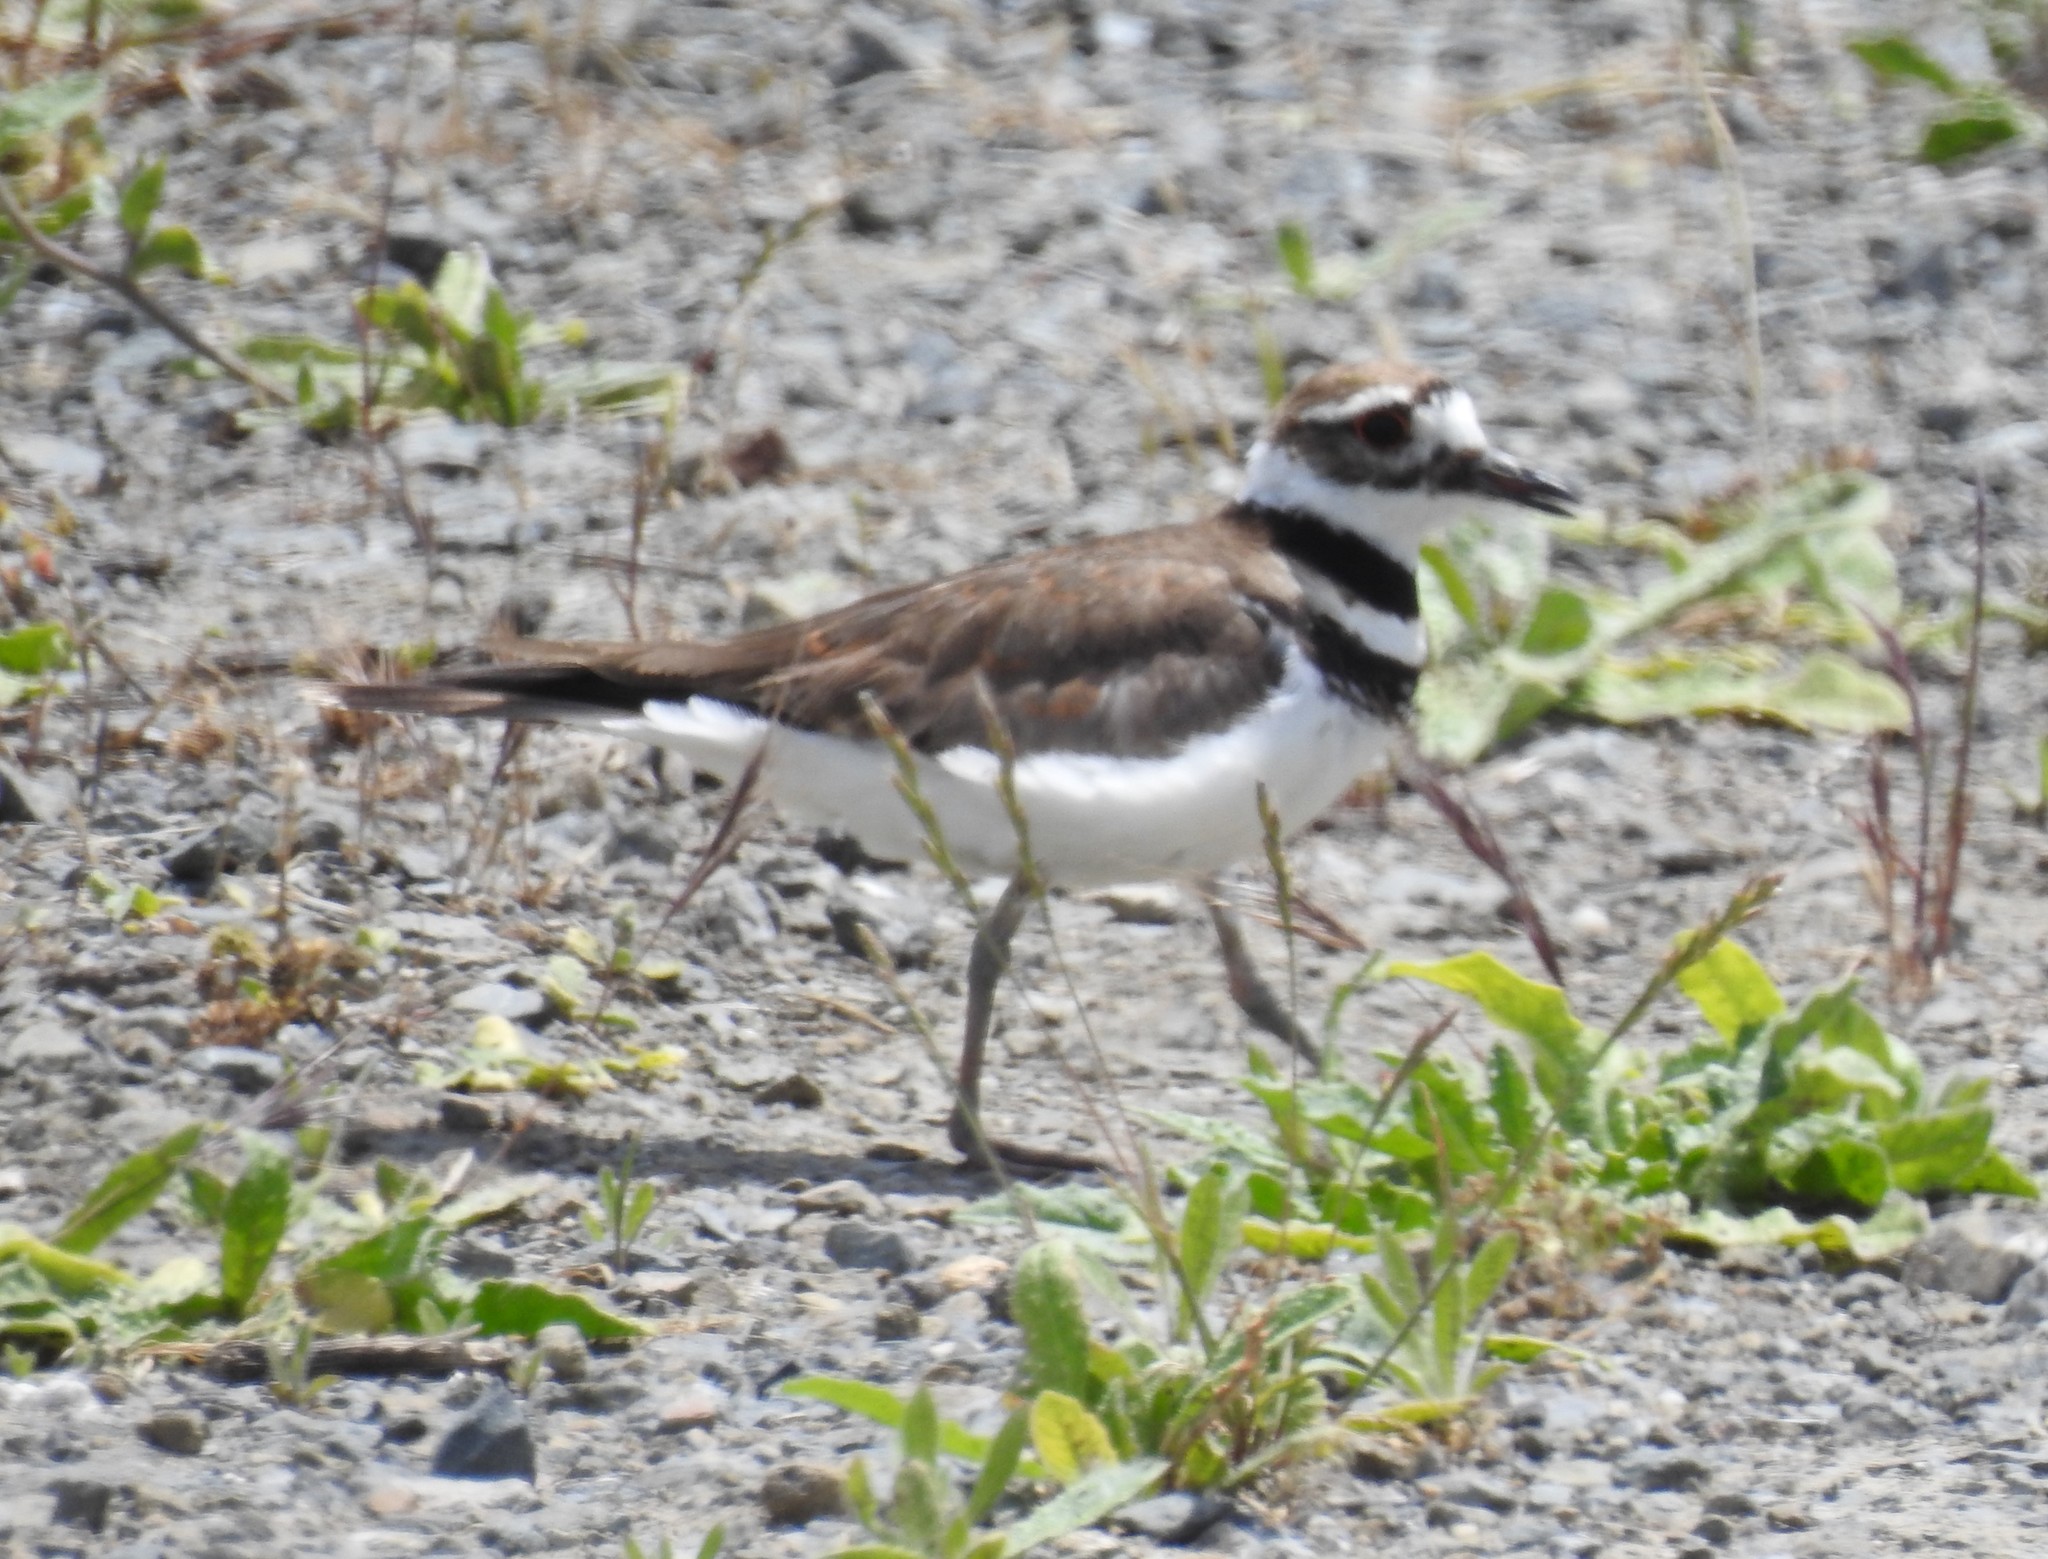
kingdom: Animalia
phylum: Chordata
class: Aves
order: Charadriiformes
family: Charadriidae
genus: Charadrius
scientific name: Charadrius vociferus
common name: Killdeer
